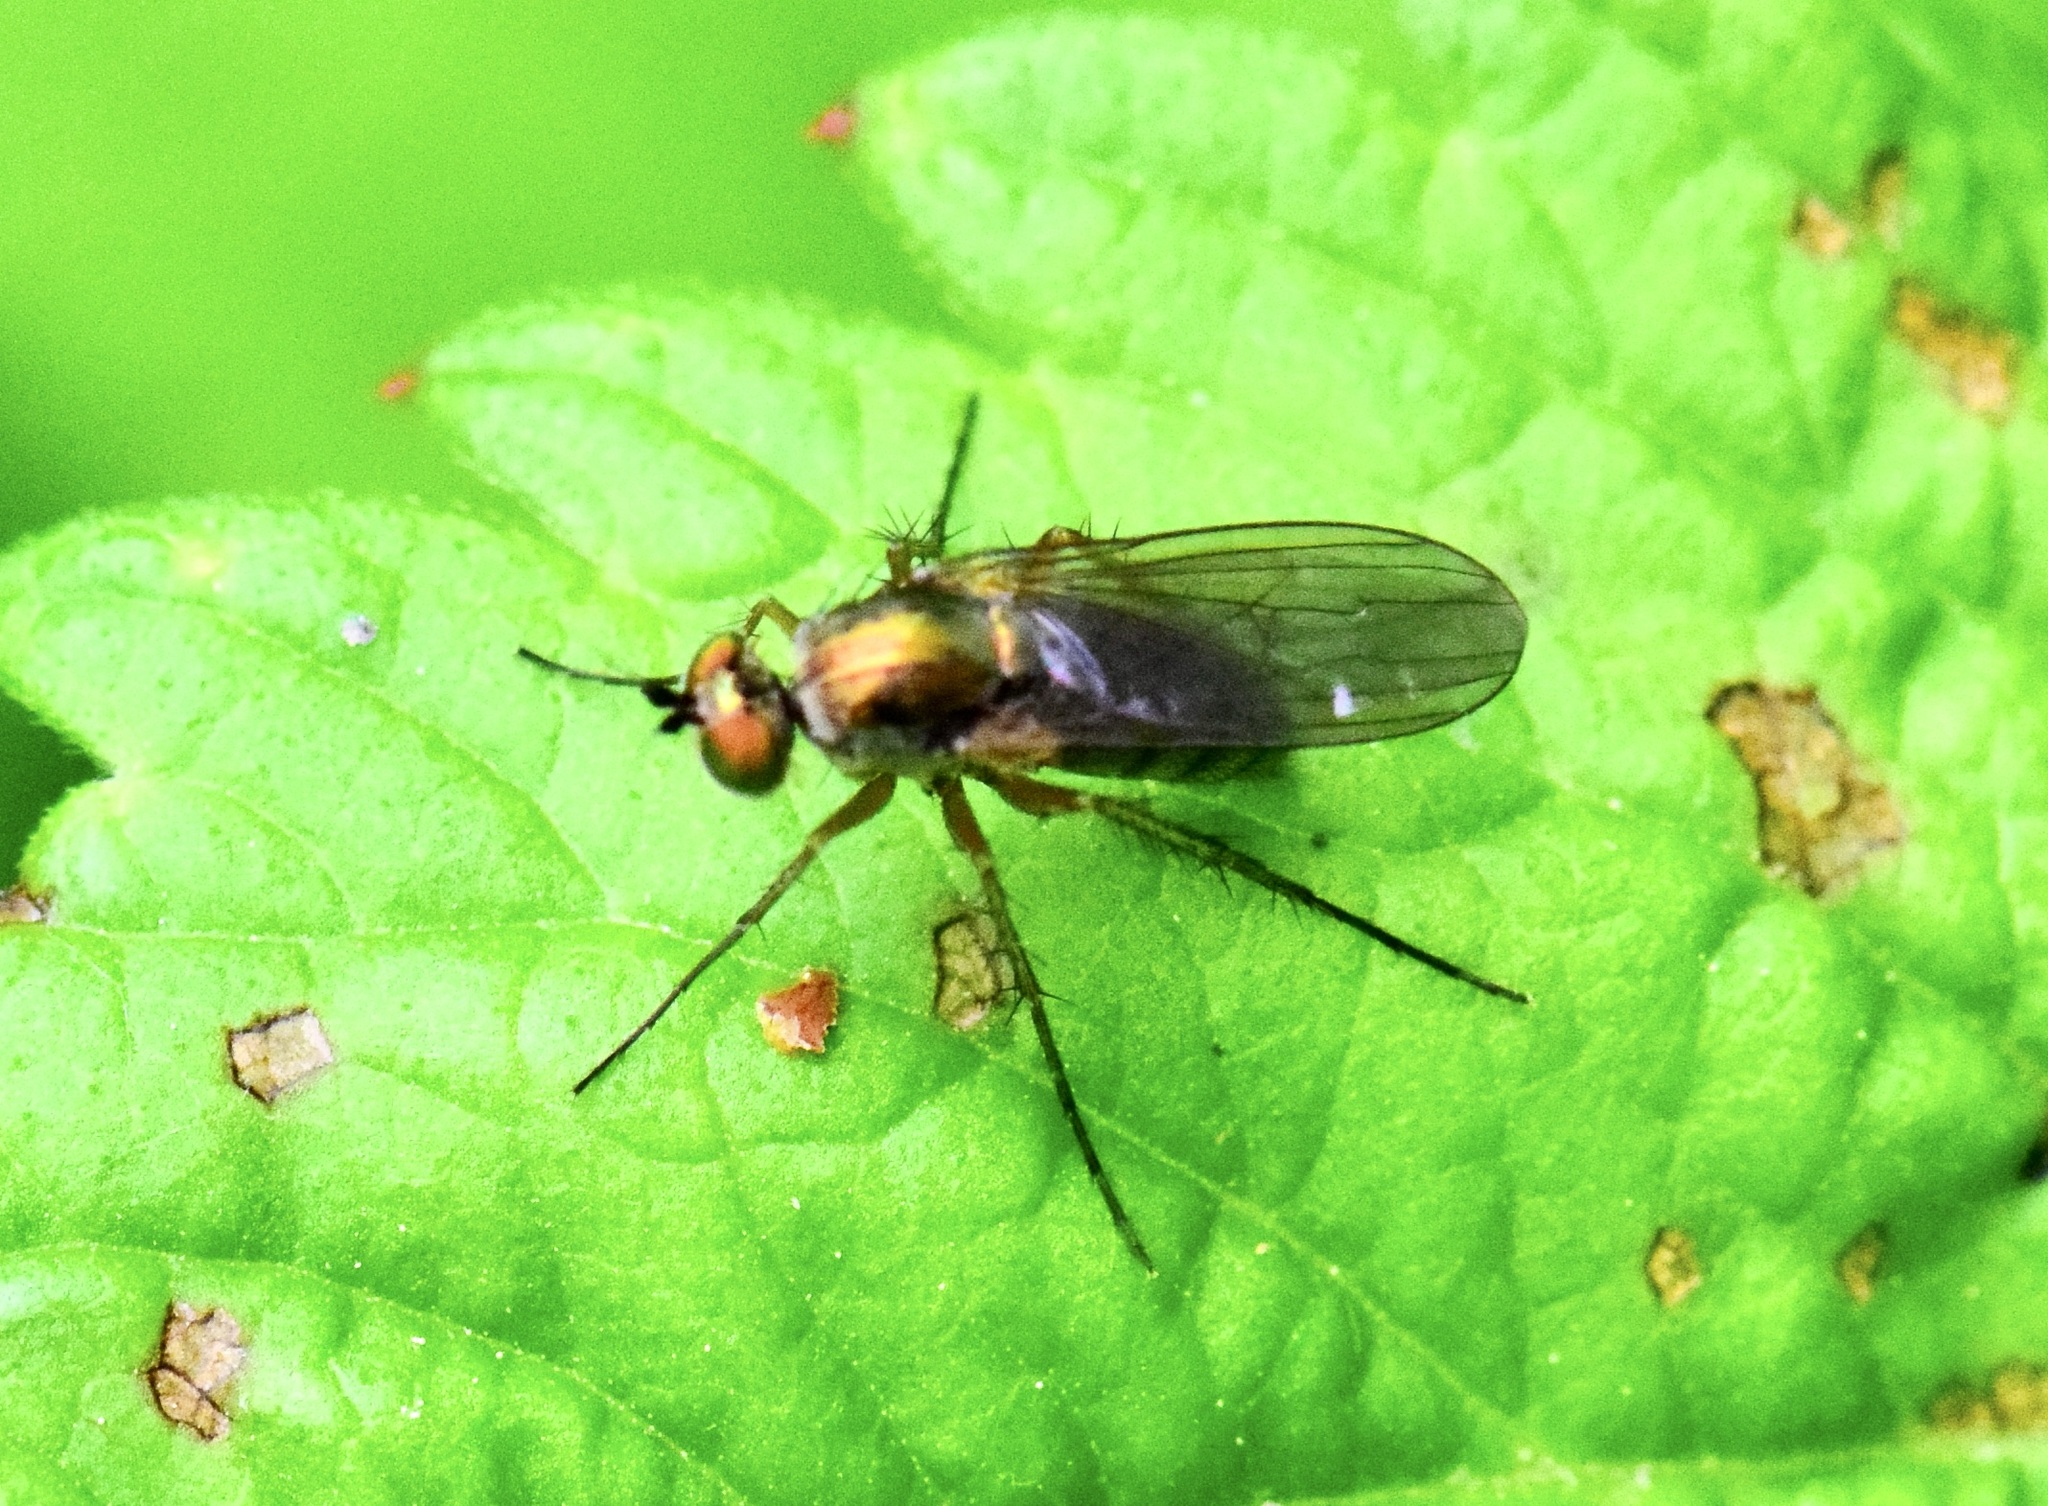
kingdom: Animalia
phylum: Arthropoda
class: Insecta
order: Diptera
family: Dolichopodidae
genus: Dolichopus
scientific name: Dolichopus
